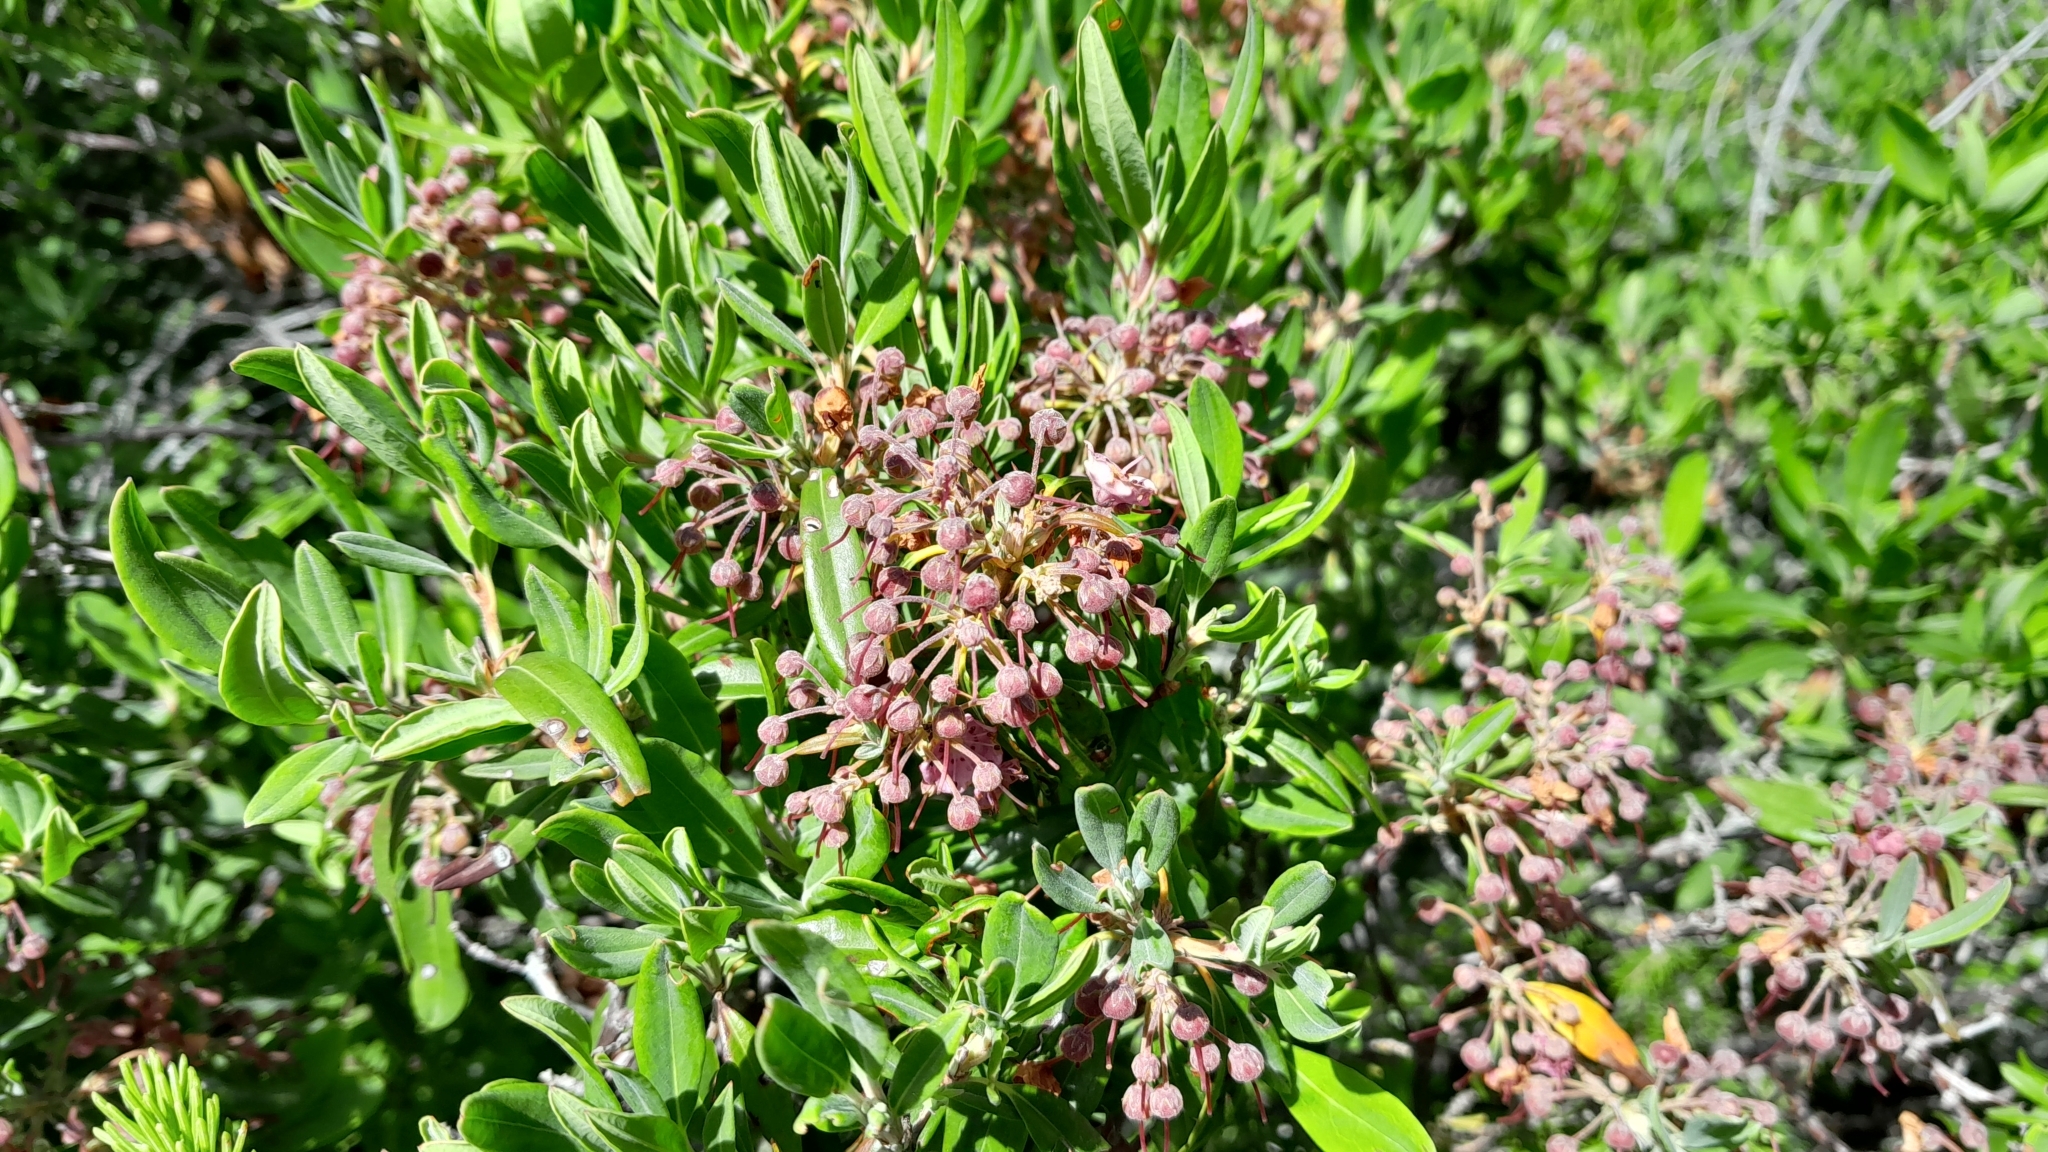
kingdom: Plantae
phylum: Tracheophyta
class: Magnoliopsida
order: Ericales
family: Ericaceae
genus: Kalmia
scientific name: Kalmia angustifolia
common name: Sheep-laurel
